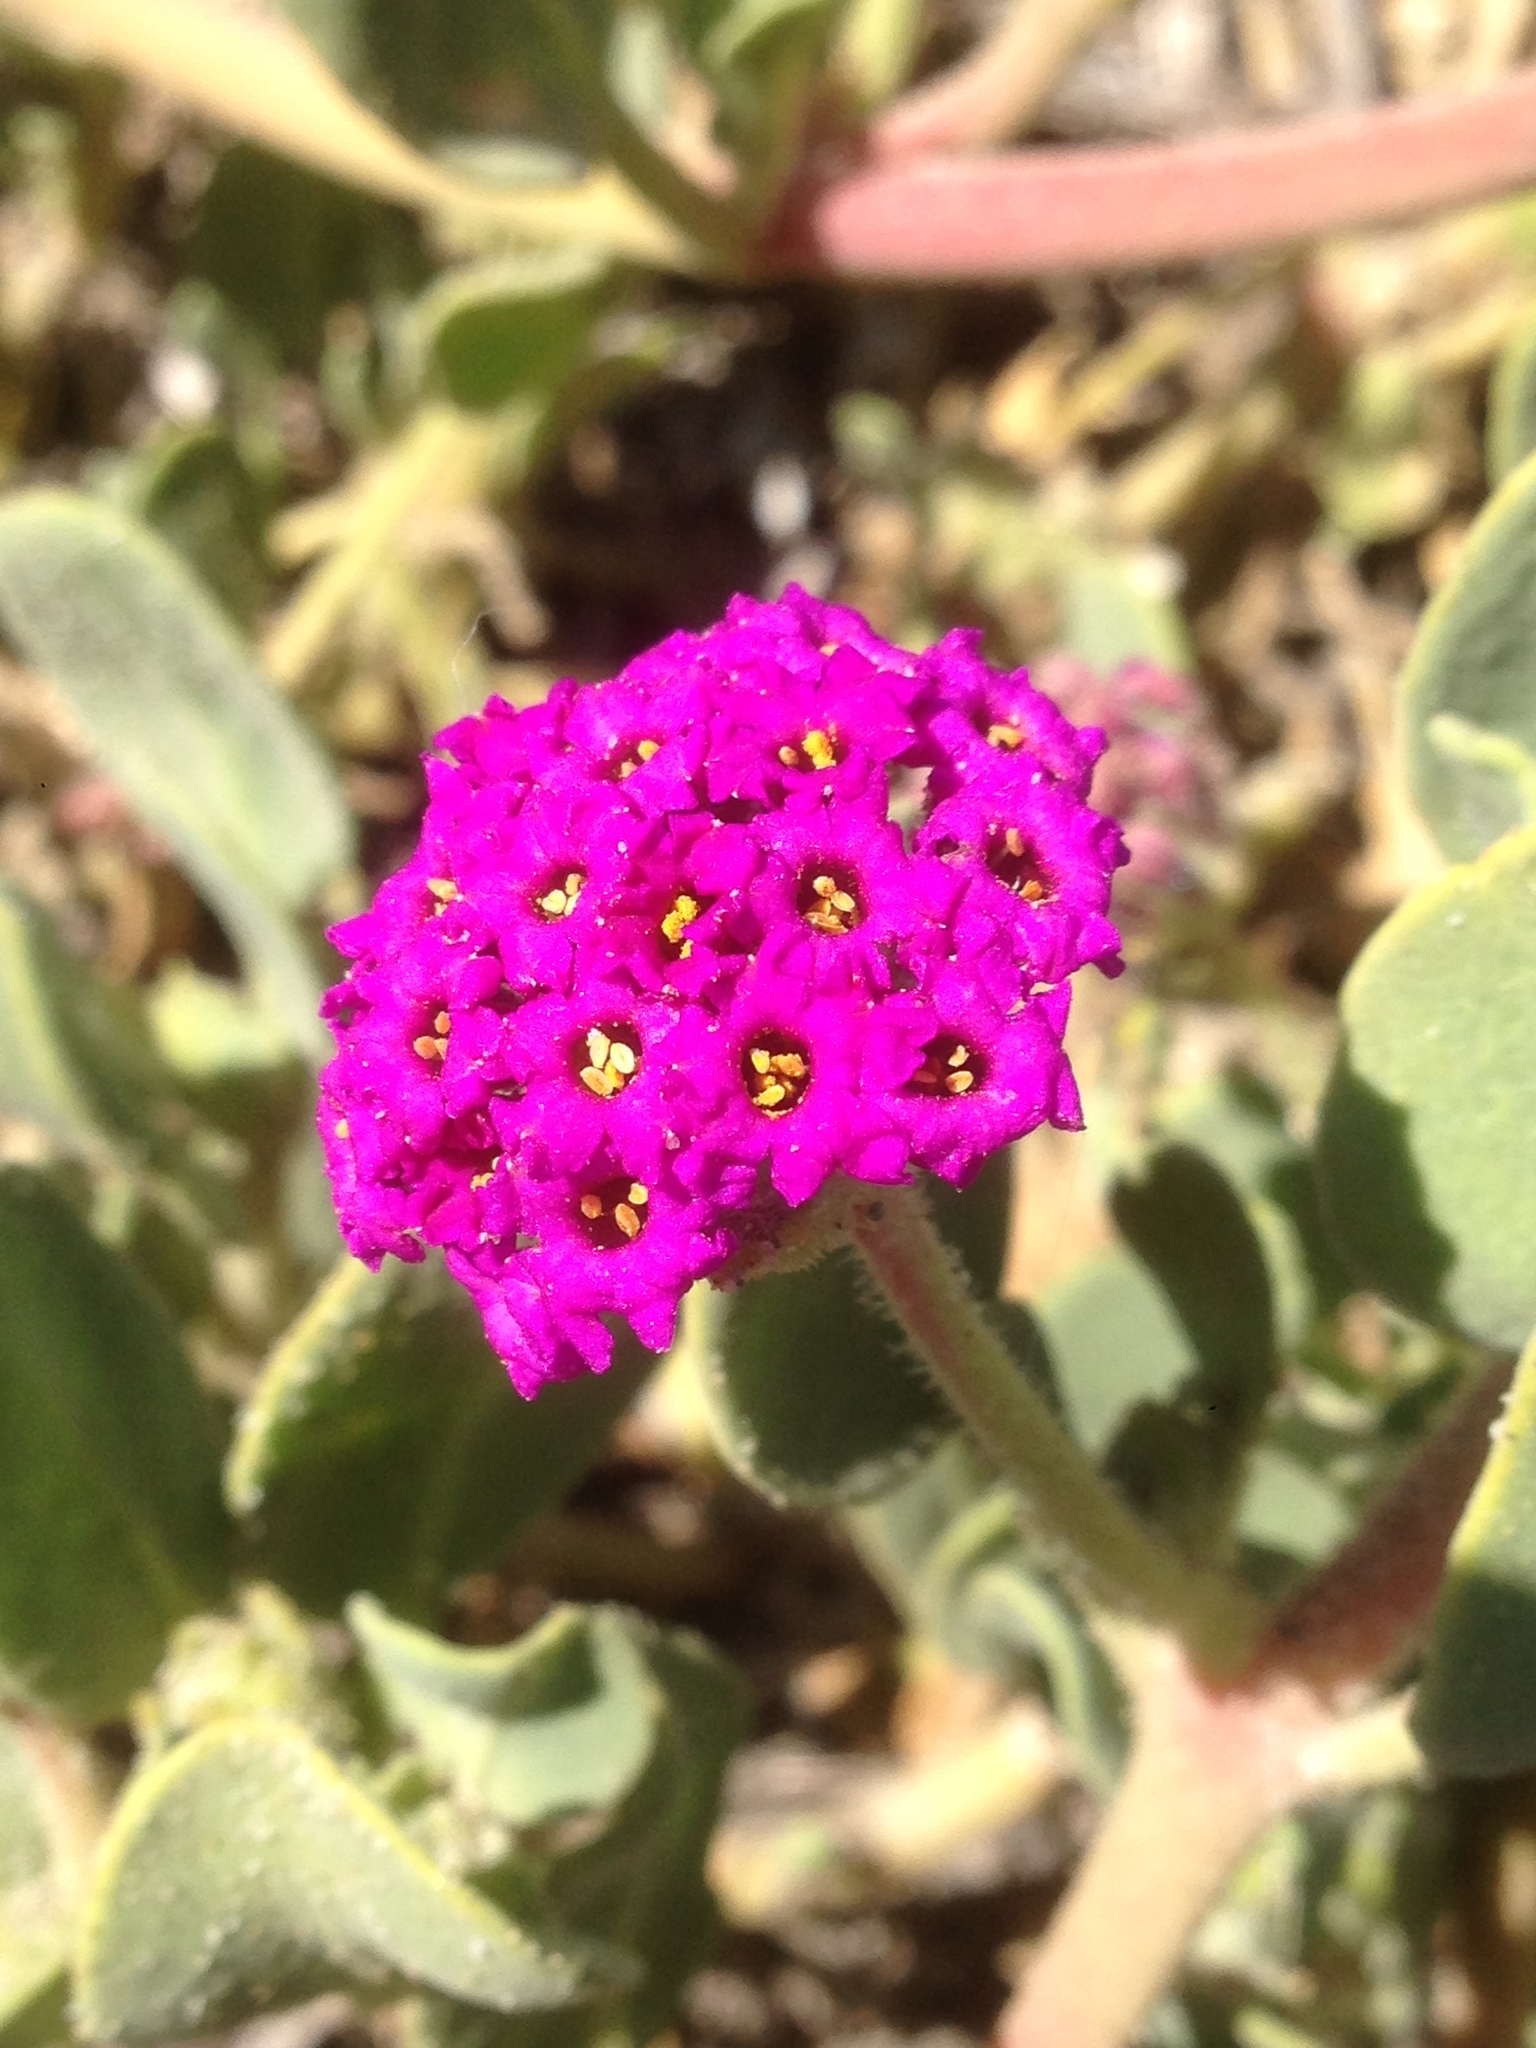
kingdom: Plantae
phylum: Tracheophyta
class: Magnoliopsida
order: Caryophyllales
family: Nyctaginaceae
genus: Abronia
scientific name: Abronia maritima
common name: Red sand-verbena
